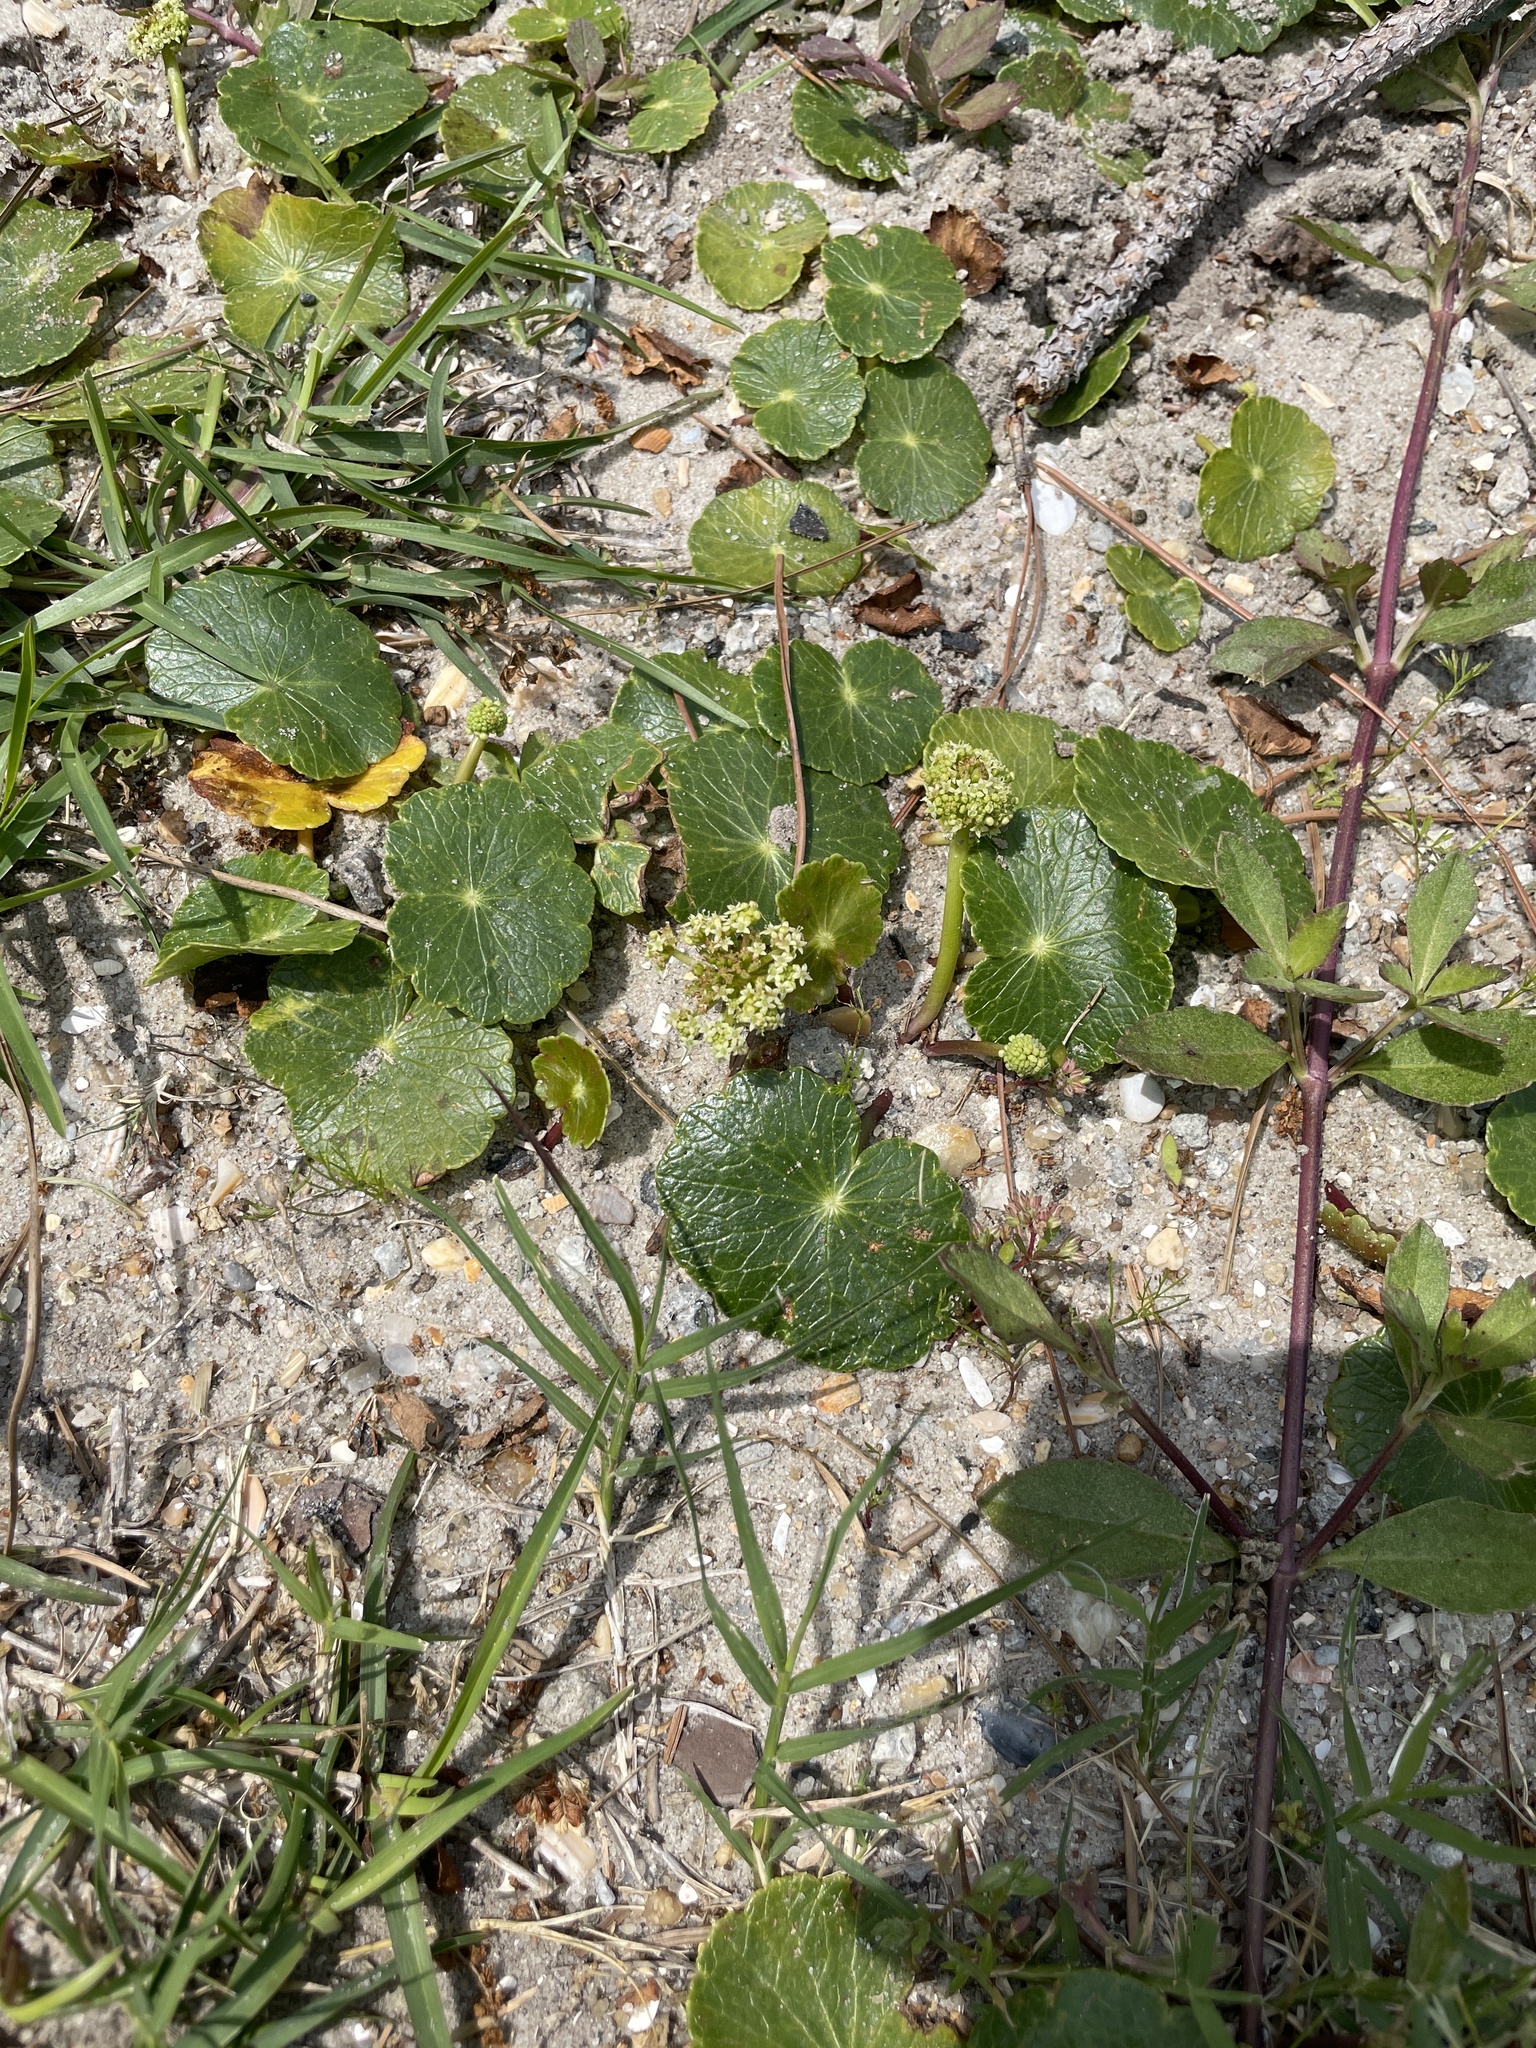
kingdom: Plantae
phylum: Tracheophyta
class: Magnoliopsida
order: Apiales
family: Araliaceae
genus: Hydrocotyle
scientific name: Hydrocotyle bonariensis
